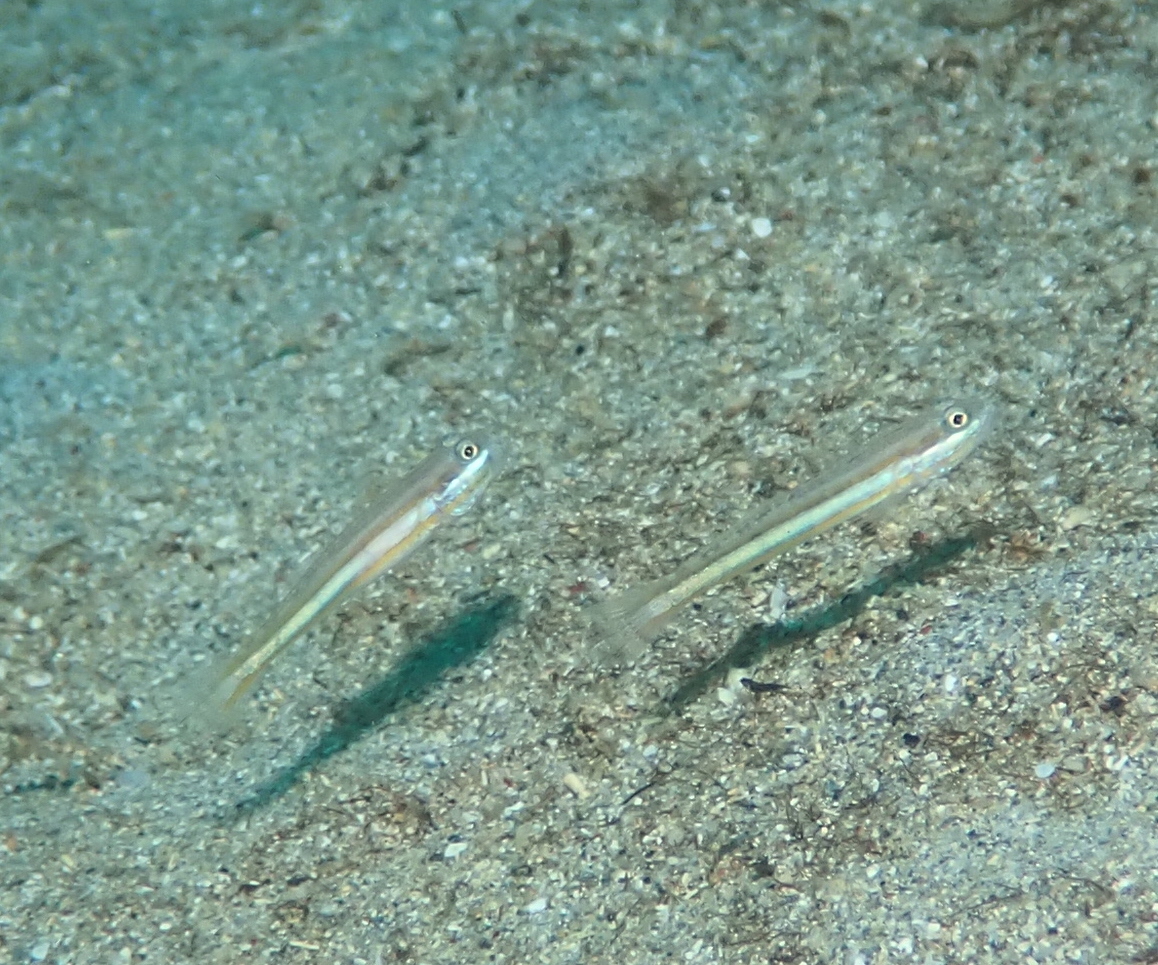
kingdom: Animalia
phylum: Chordata
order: Perciformes
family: Gobiidae
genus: Valenciennea
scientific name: Valenciennea yanoi
